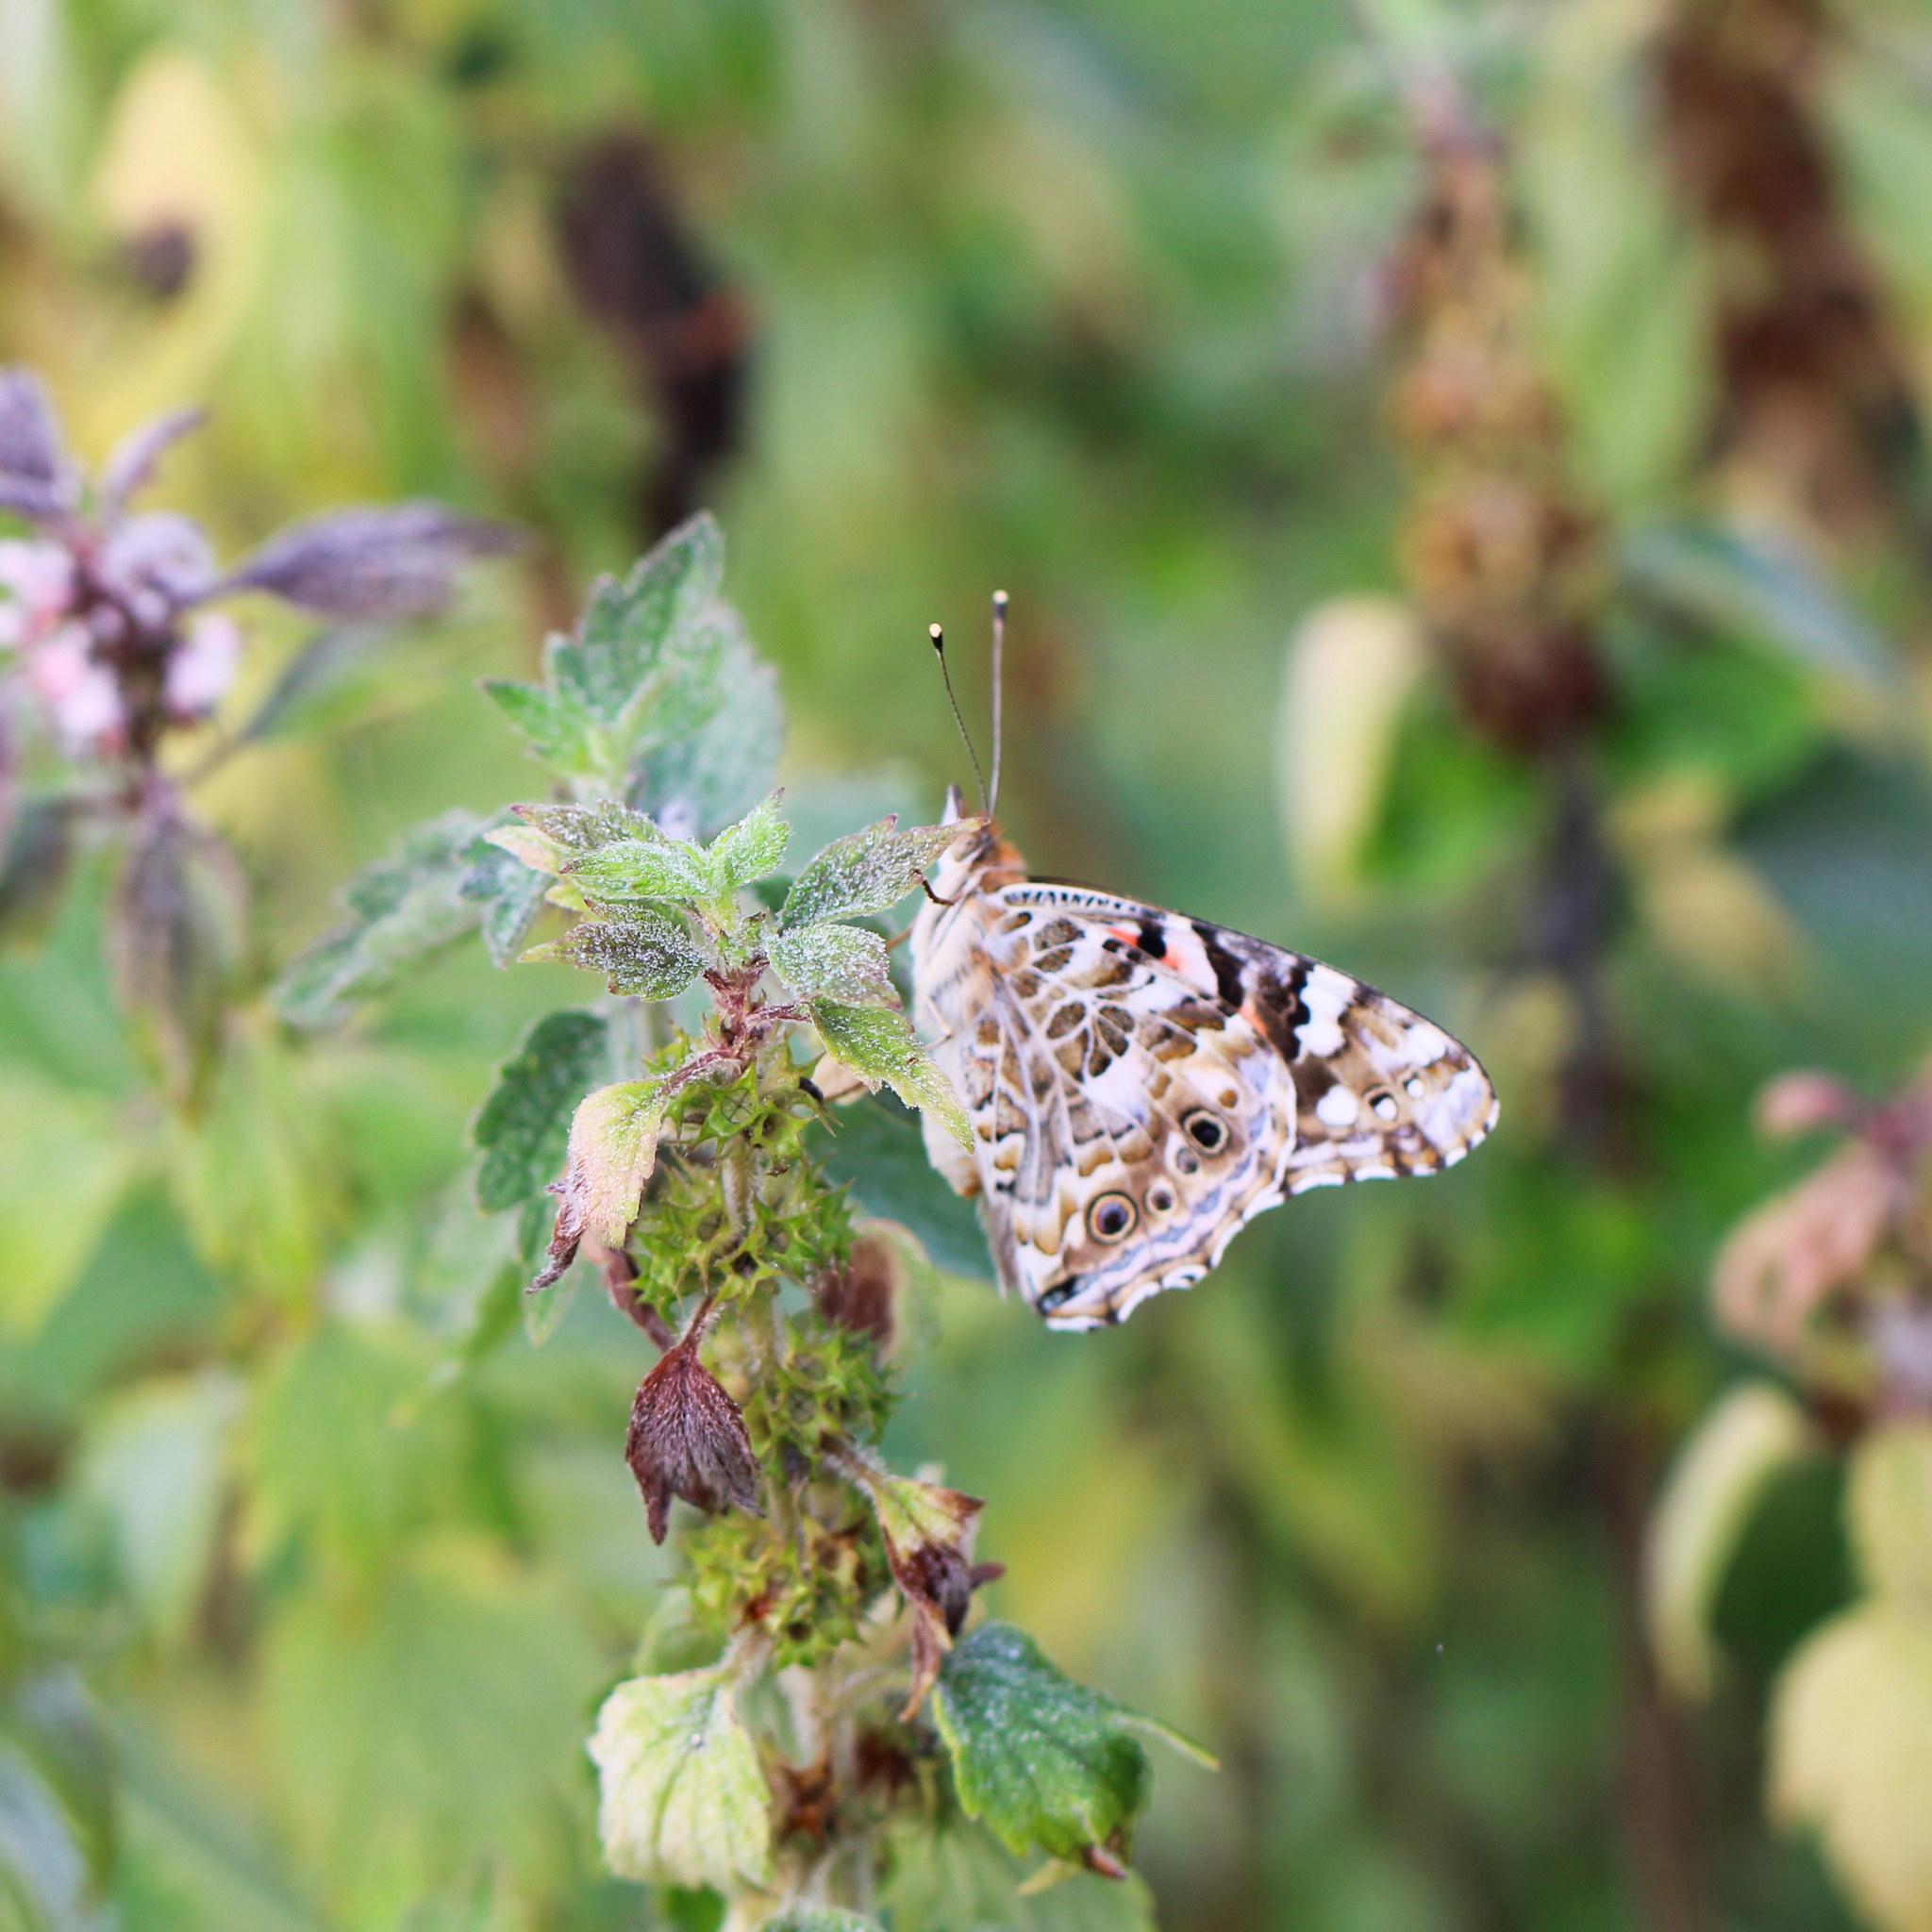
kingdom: Animalia
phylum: Arthropoda
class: Insecta
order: Lepidoptera
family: Nymphalidae
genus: Vanessa
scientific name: Vanessa cardui
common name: Painted lady
